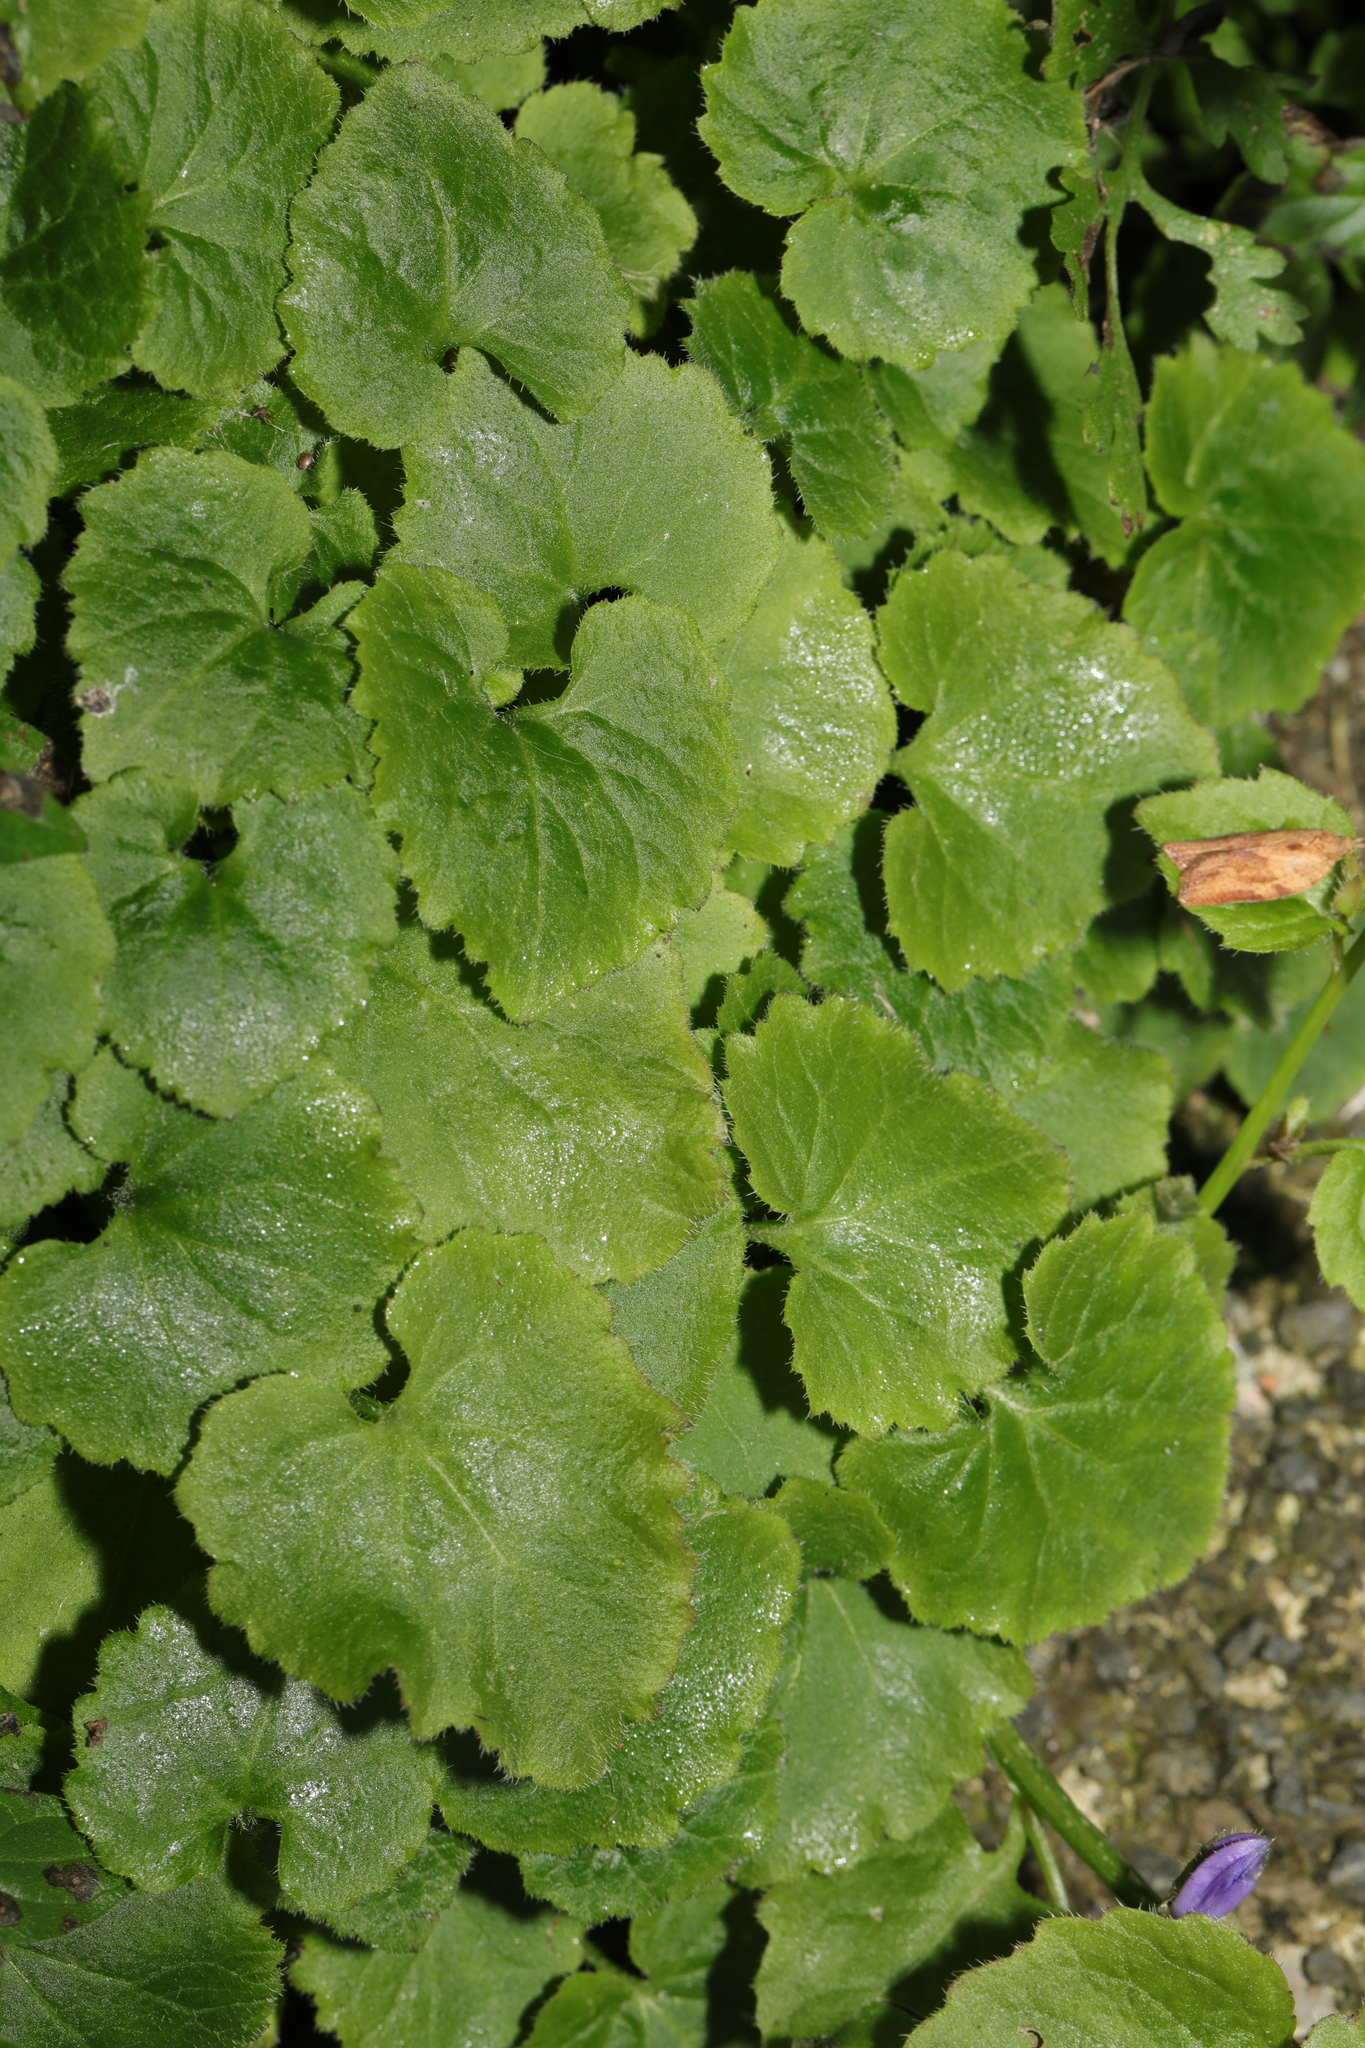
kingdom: Plantae
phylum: Tracheophyta
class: Magnoliopsida
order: Asterales
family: Campanulaceae
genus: Campanula
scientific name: Campanula poscharskyana
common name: Trailing bellflower
